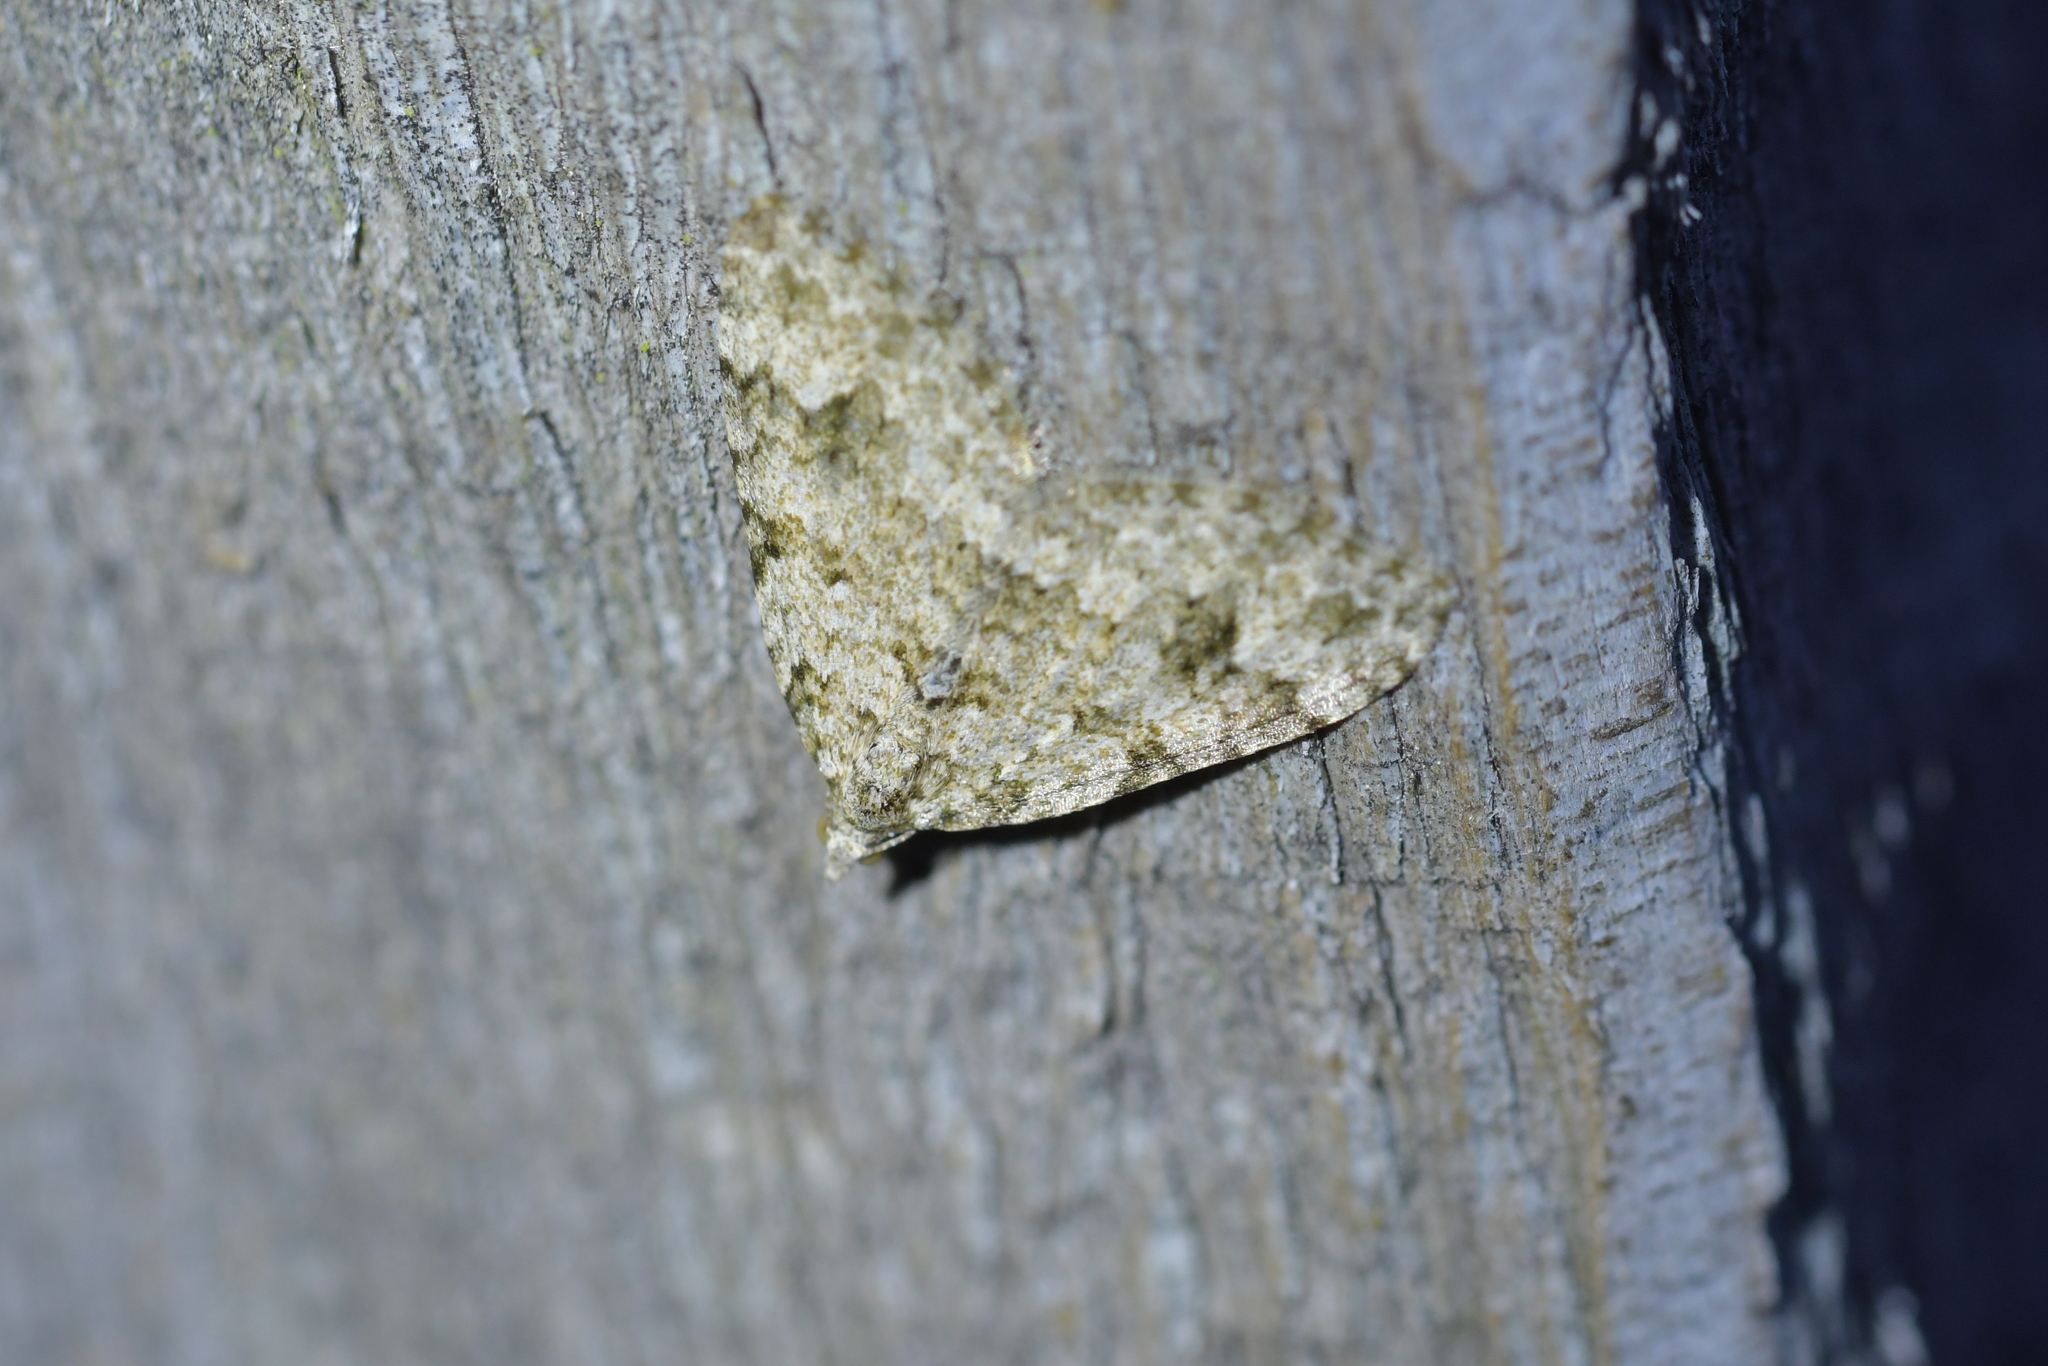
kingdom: Animalia
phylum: Arthropoda
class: Insecta
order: Lepidoptera
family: Geometridae
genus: Helastia
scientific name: Helastia cinerearia
